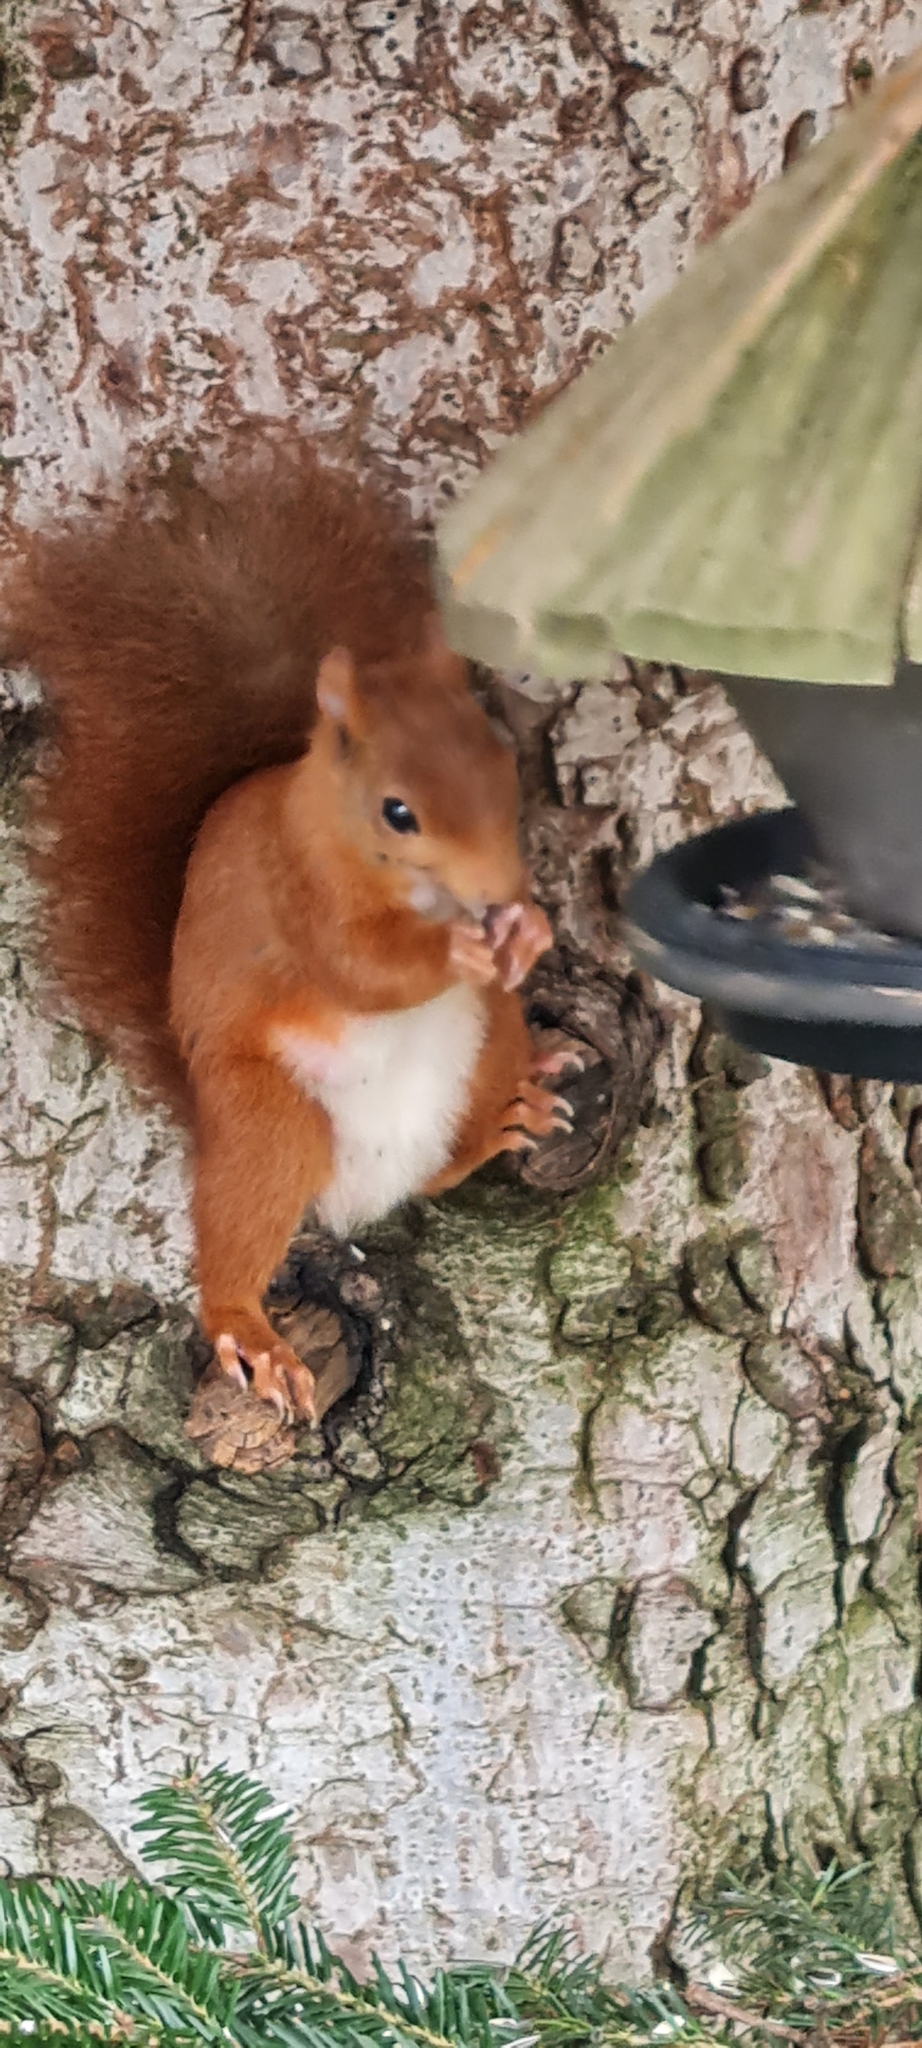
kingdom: Animalia
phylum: Chordata
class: Mammalia
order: Rodentia
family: Sciuridae
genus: Sciurus
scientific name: Sciurus vulgaris
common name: Eurasian red squirrel
